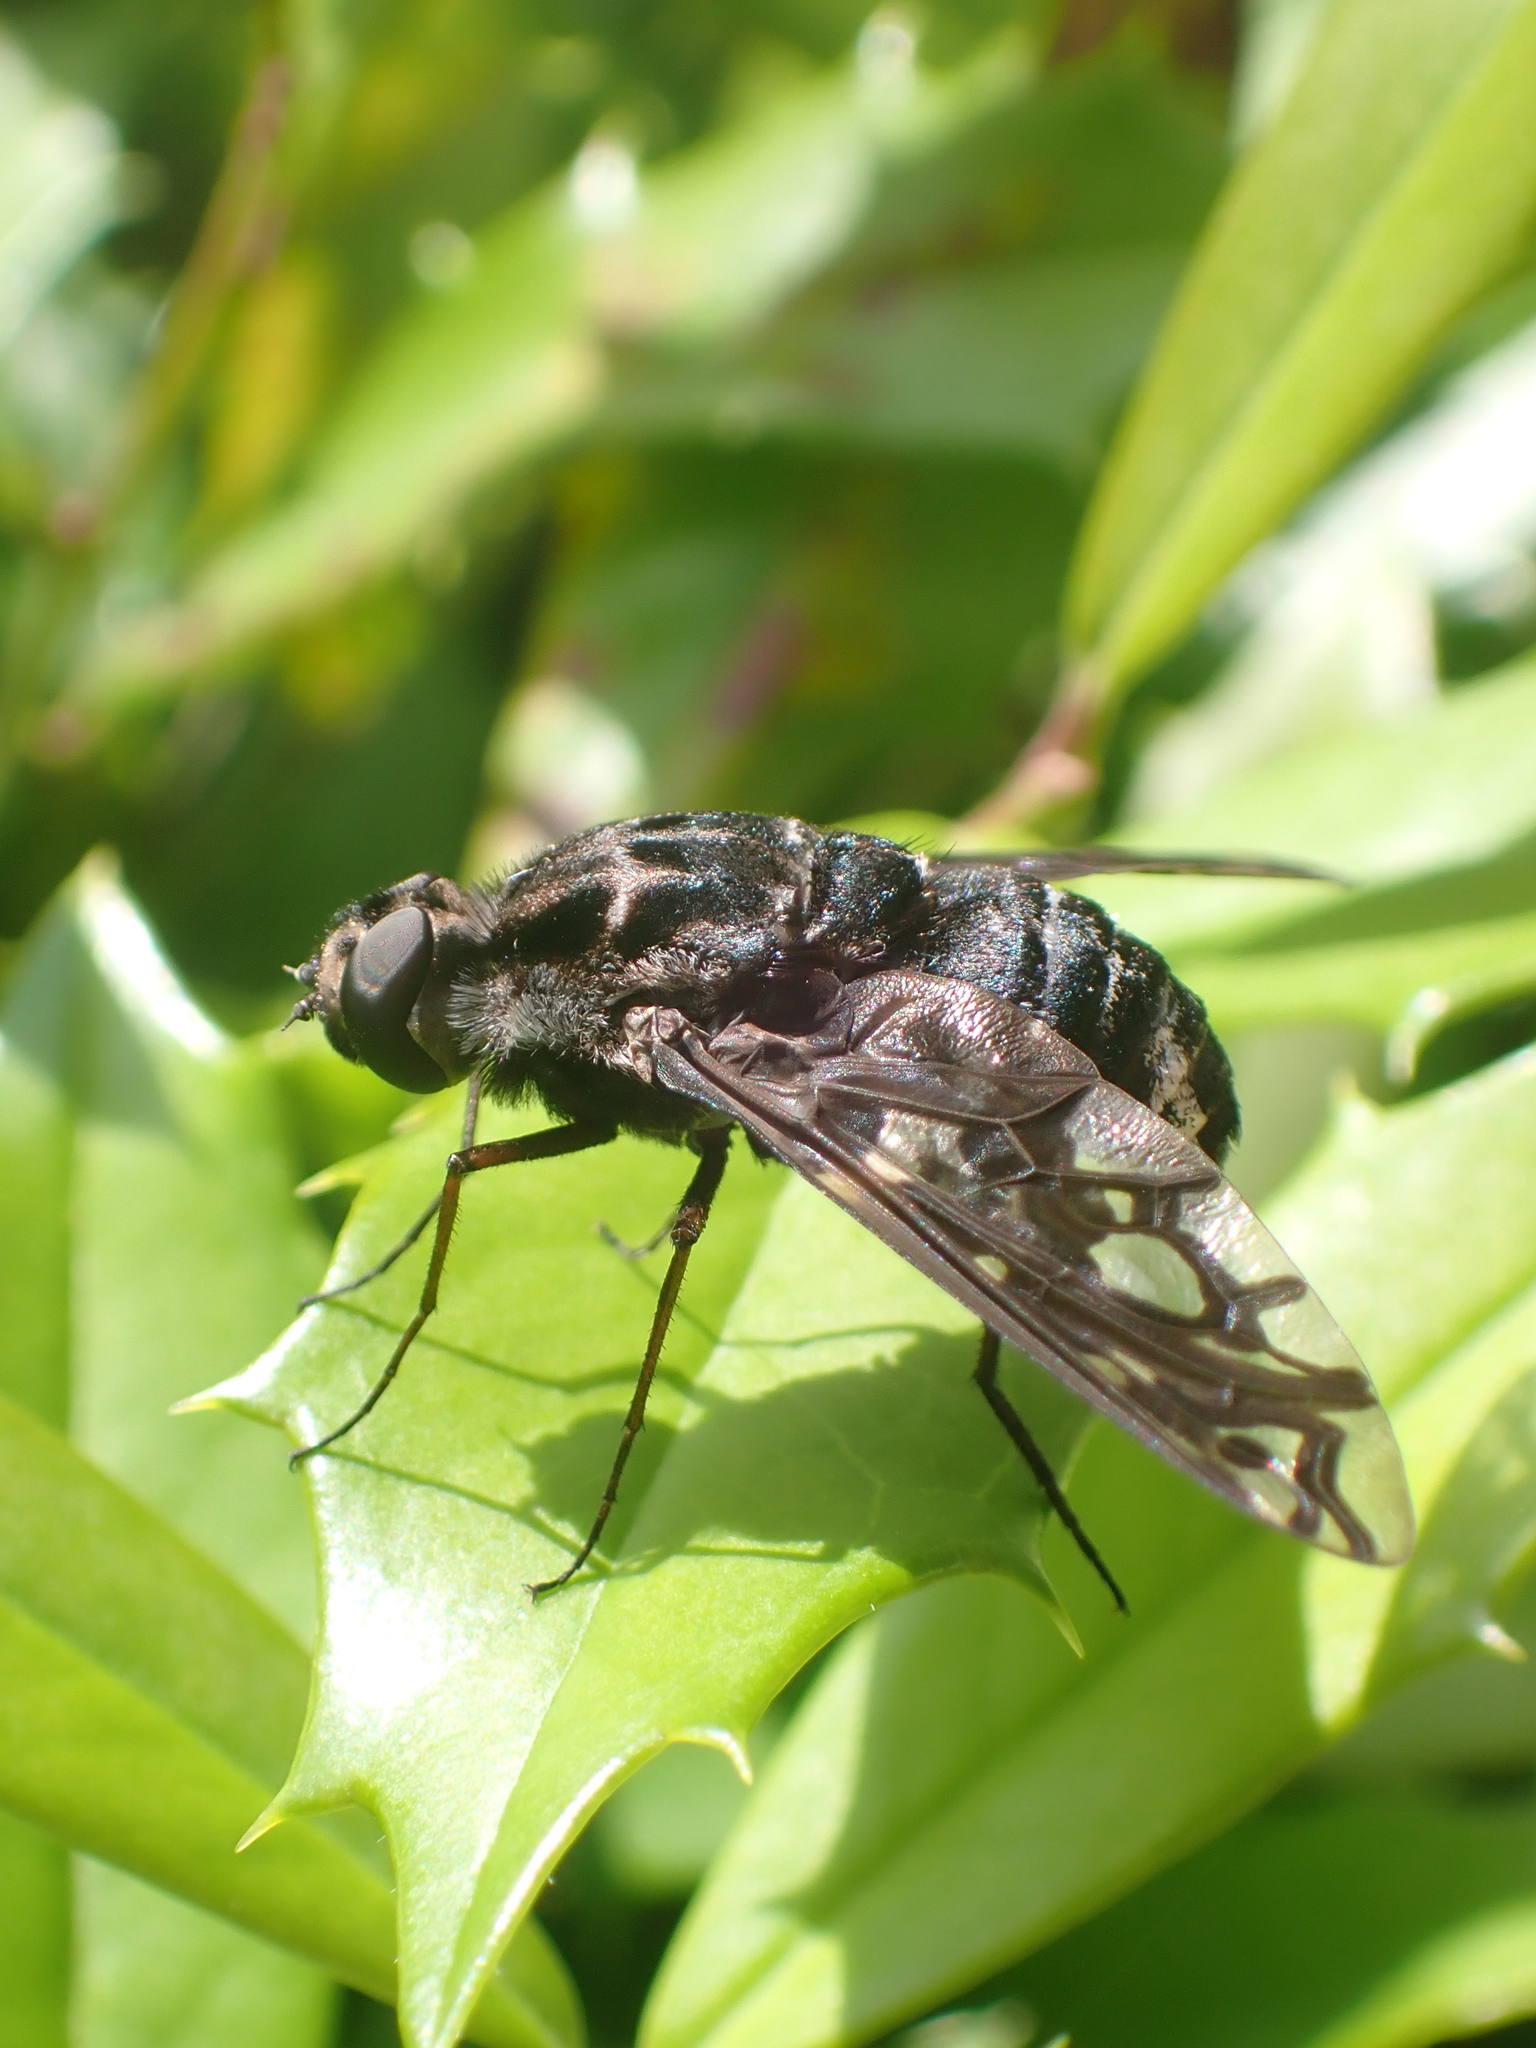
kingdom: Animalia
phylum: Arthropoda
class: Insecta
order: Diptera
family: Bombyliidae
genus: Xenox
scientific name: Xenox tigrinus
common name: Tiger bee fly
